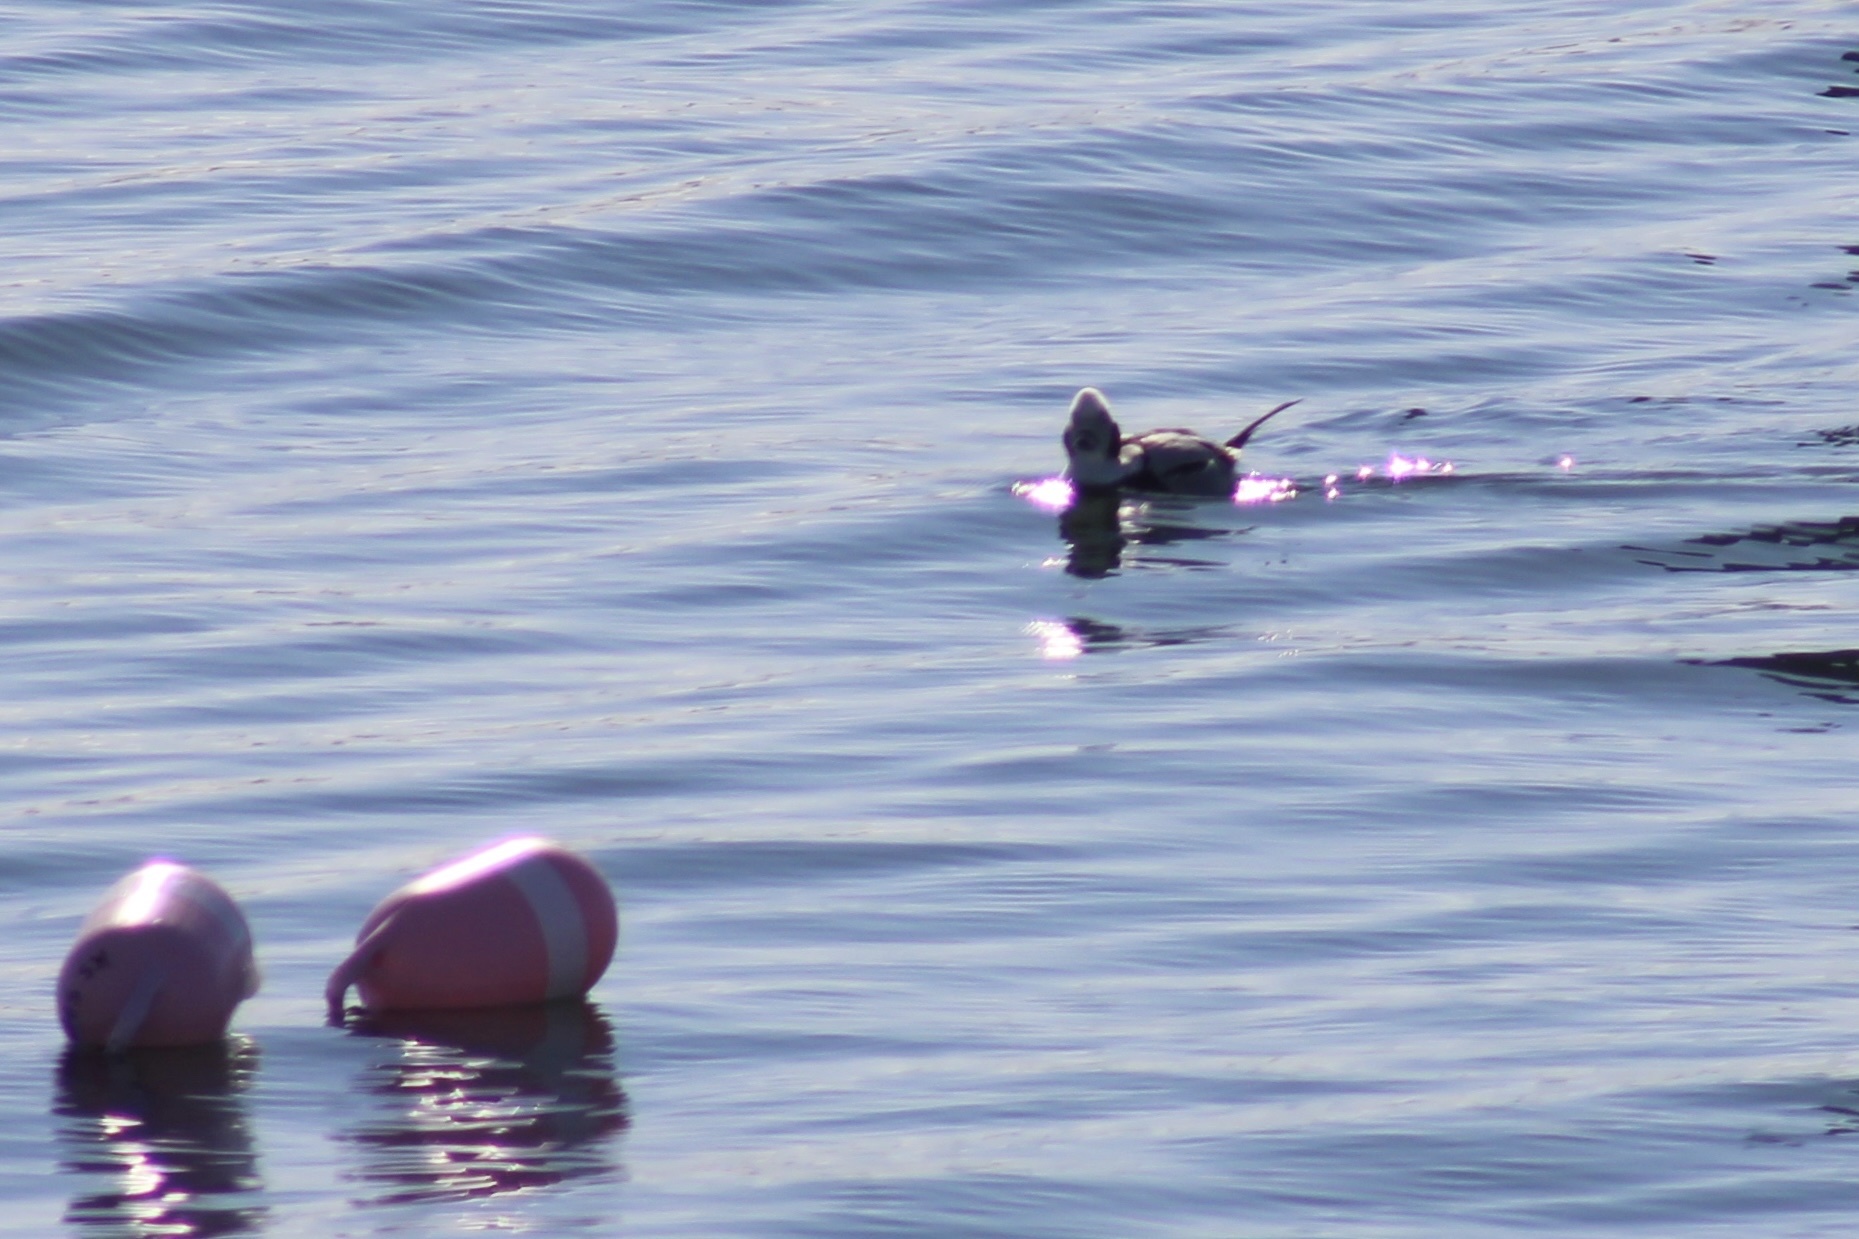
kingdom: Animalia
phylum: Chordata
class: Aves
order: Anseriformes
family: Anatidae
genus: Clangula
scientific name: Clangula hyemalis
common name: Long-tailed duck
